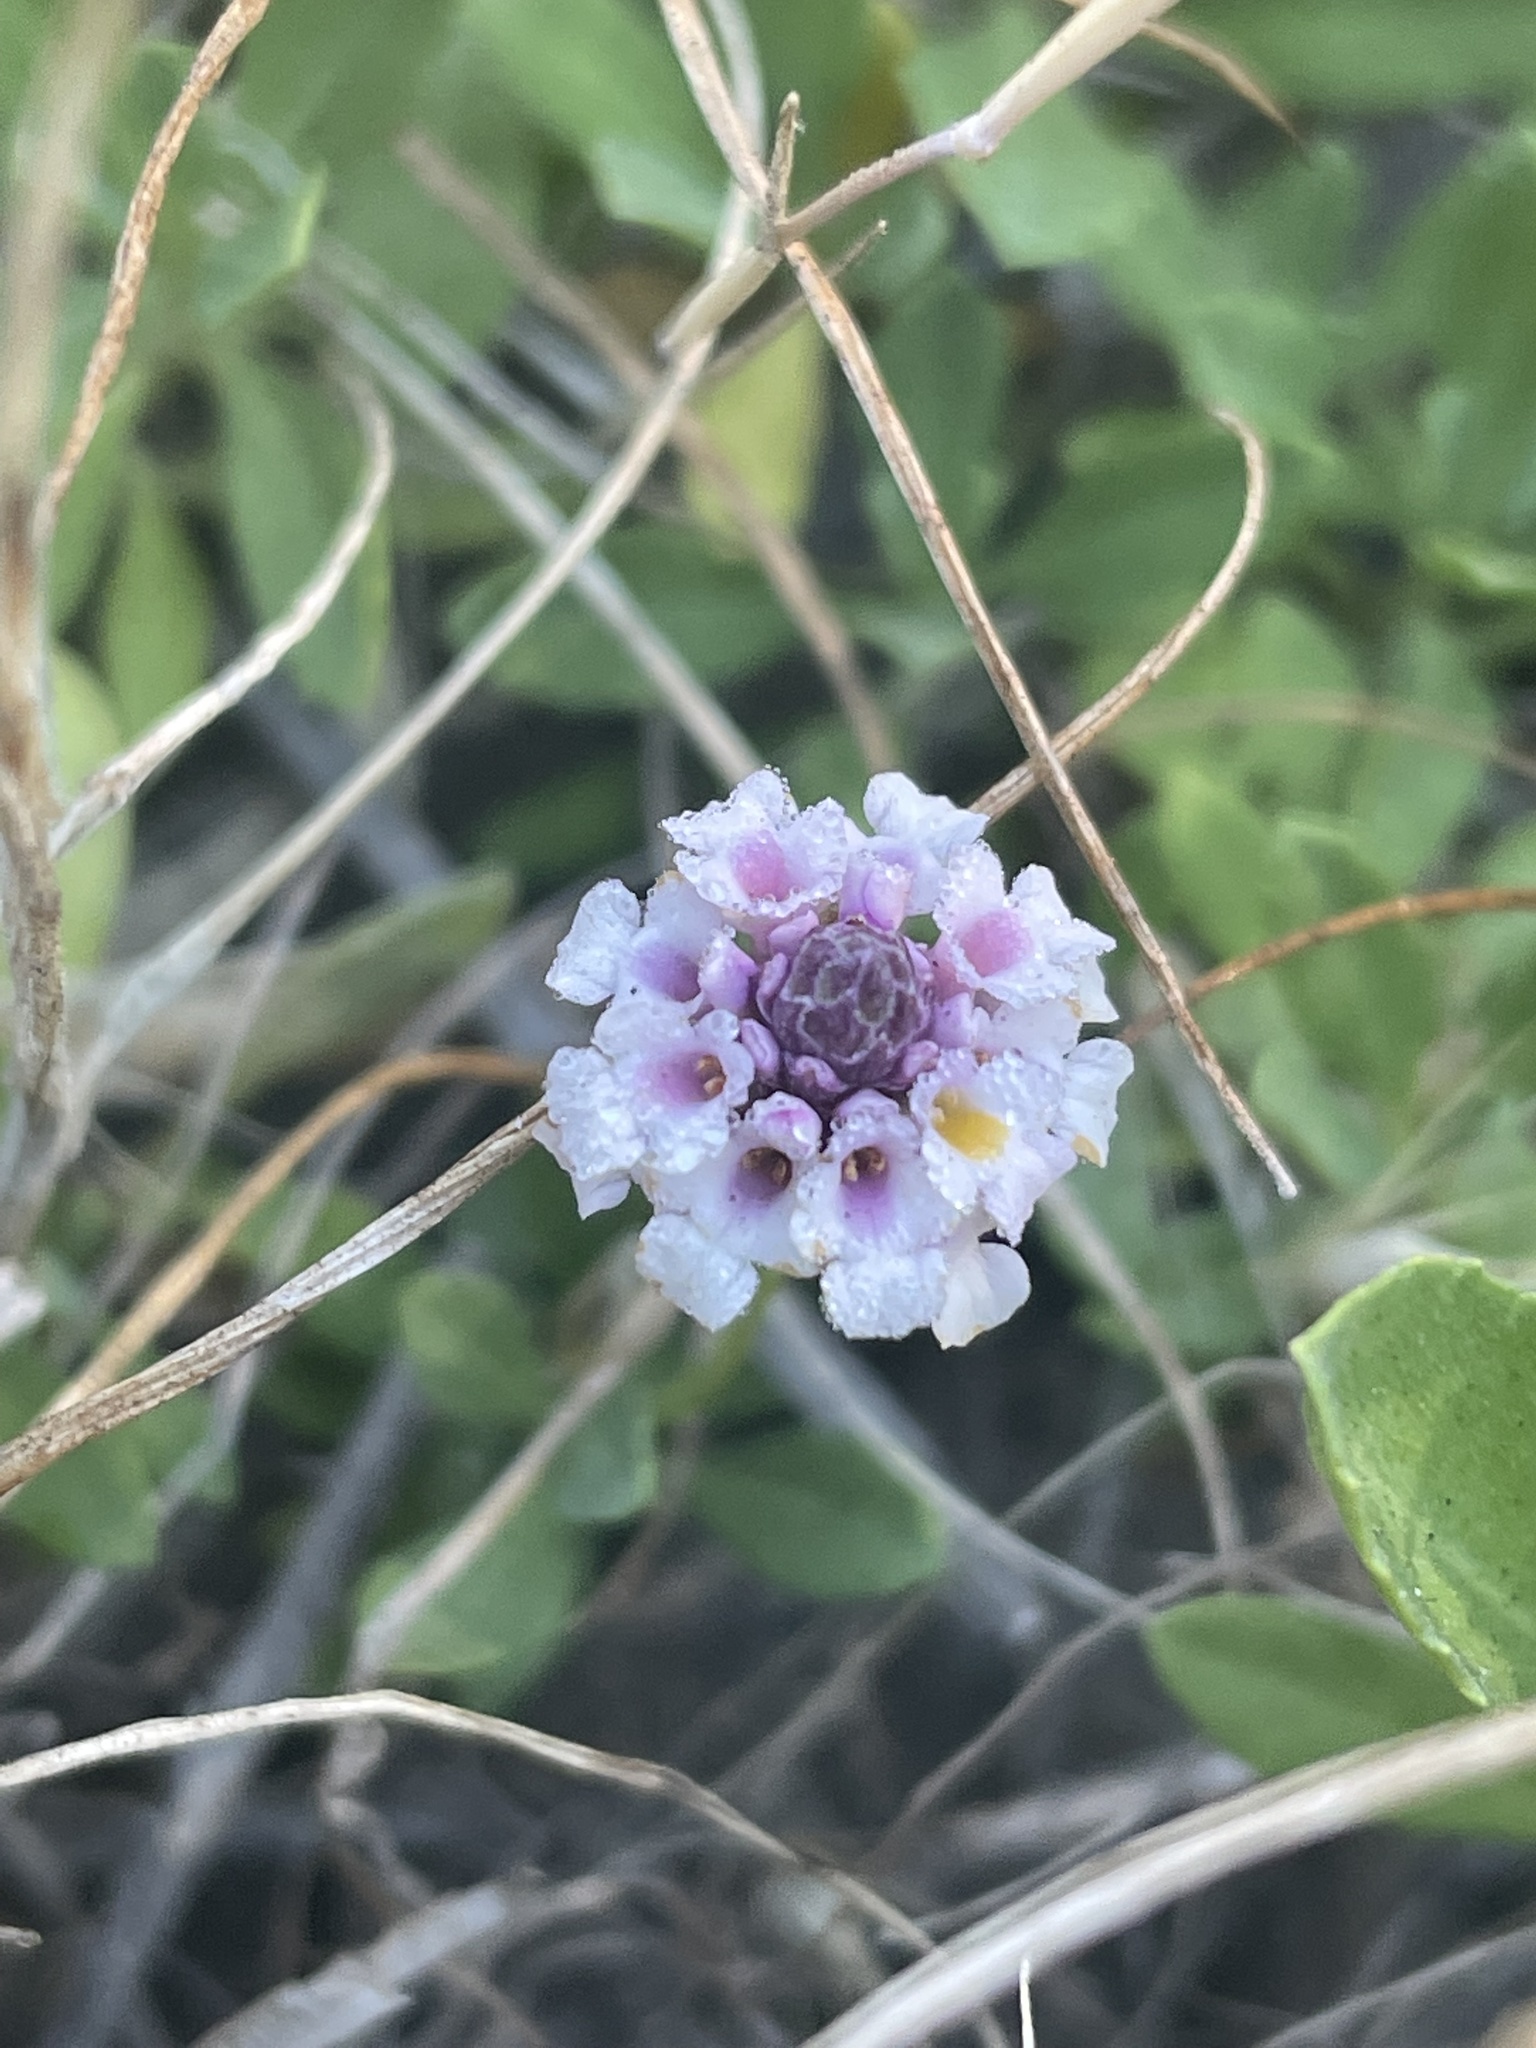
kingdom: Plantae
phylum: Tracheophyta
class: Magnoliopsida
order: Lamiales
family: Verbenaceae
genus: Phyla
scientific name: Phyla nodiflora
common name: Frogfruit
